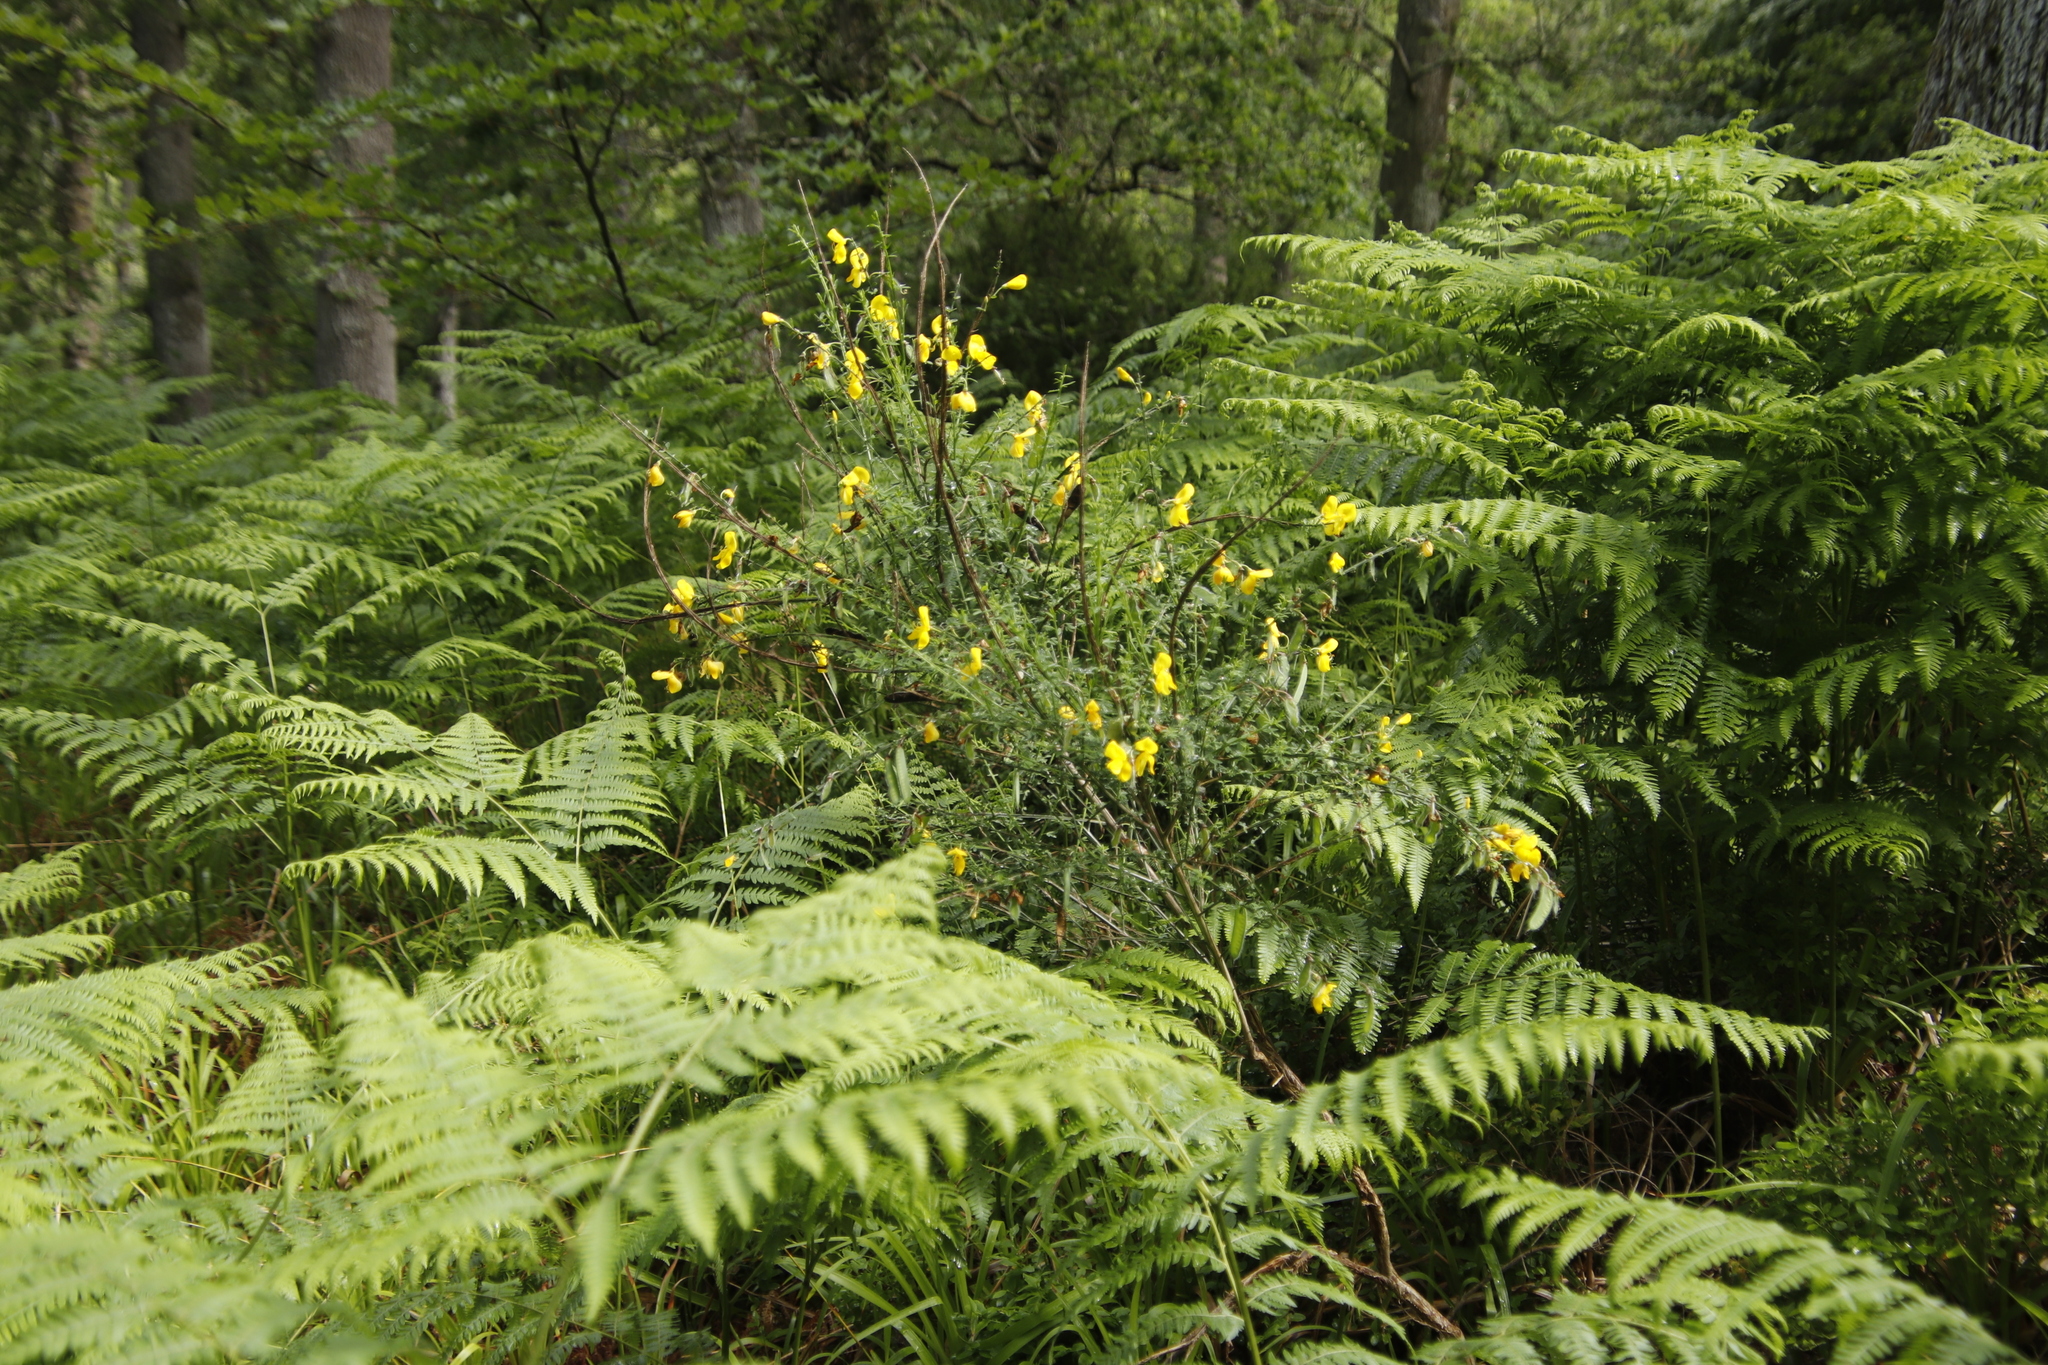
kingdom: Plantae
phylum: Tracheophyta
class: Magnoliopsida
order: Fabales
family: Fabaceae
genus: Cytisus
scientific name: Cytisus scoparius
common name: Scotch broom
